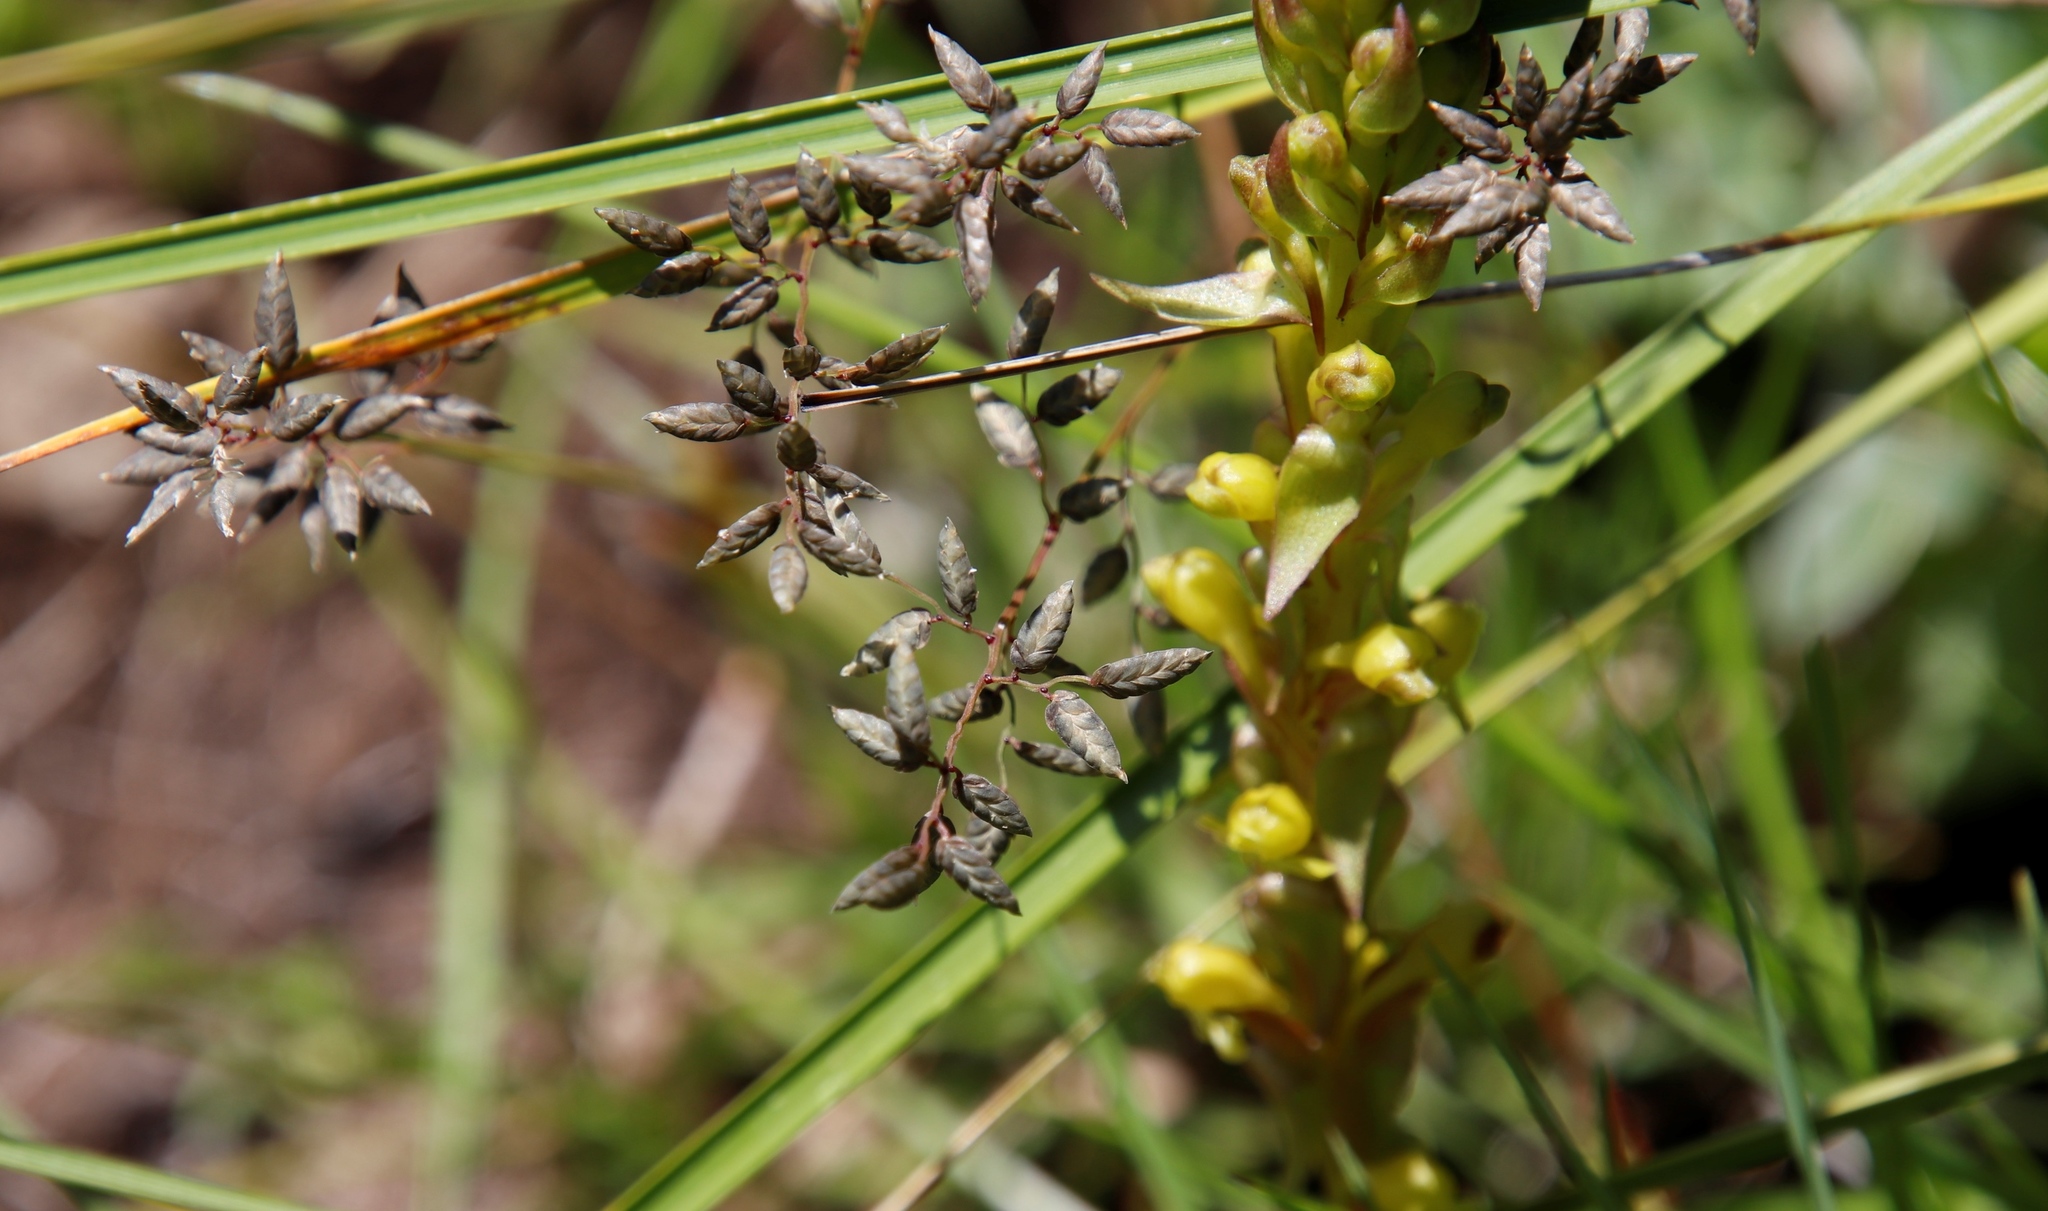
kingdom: Plantae
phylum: Tracheophyta
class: Liliopsida
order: Asparagales
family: Orchidaceae
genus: Satyrium
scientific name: Satyrium parviflorum
